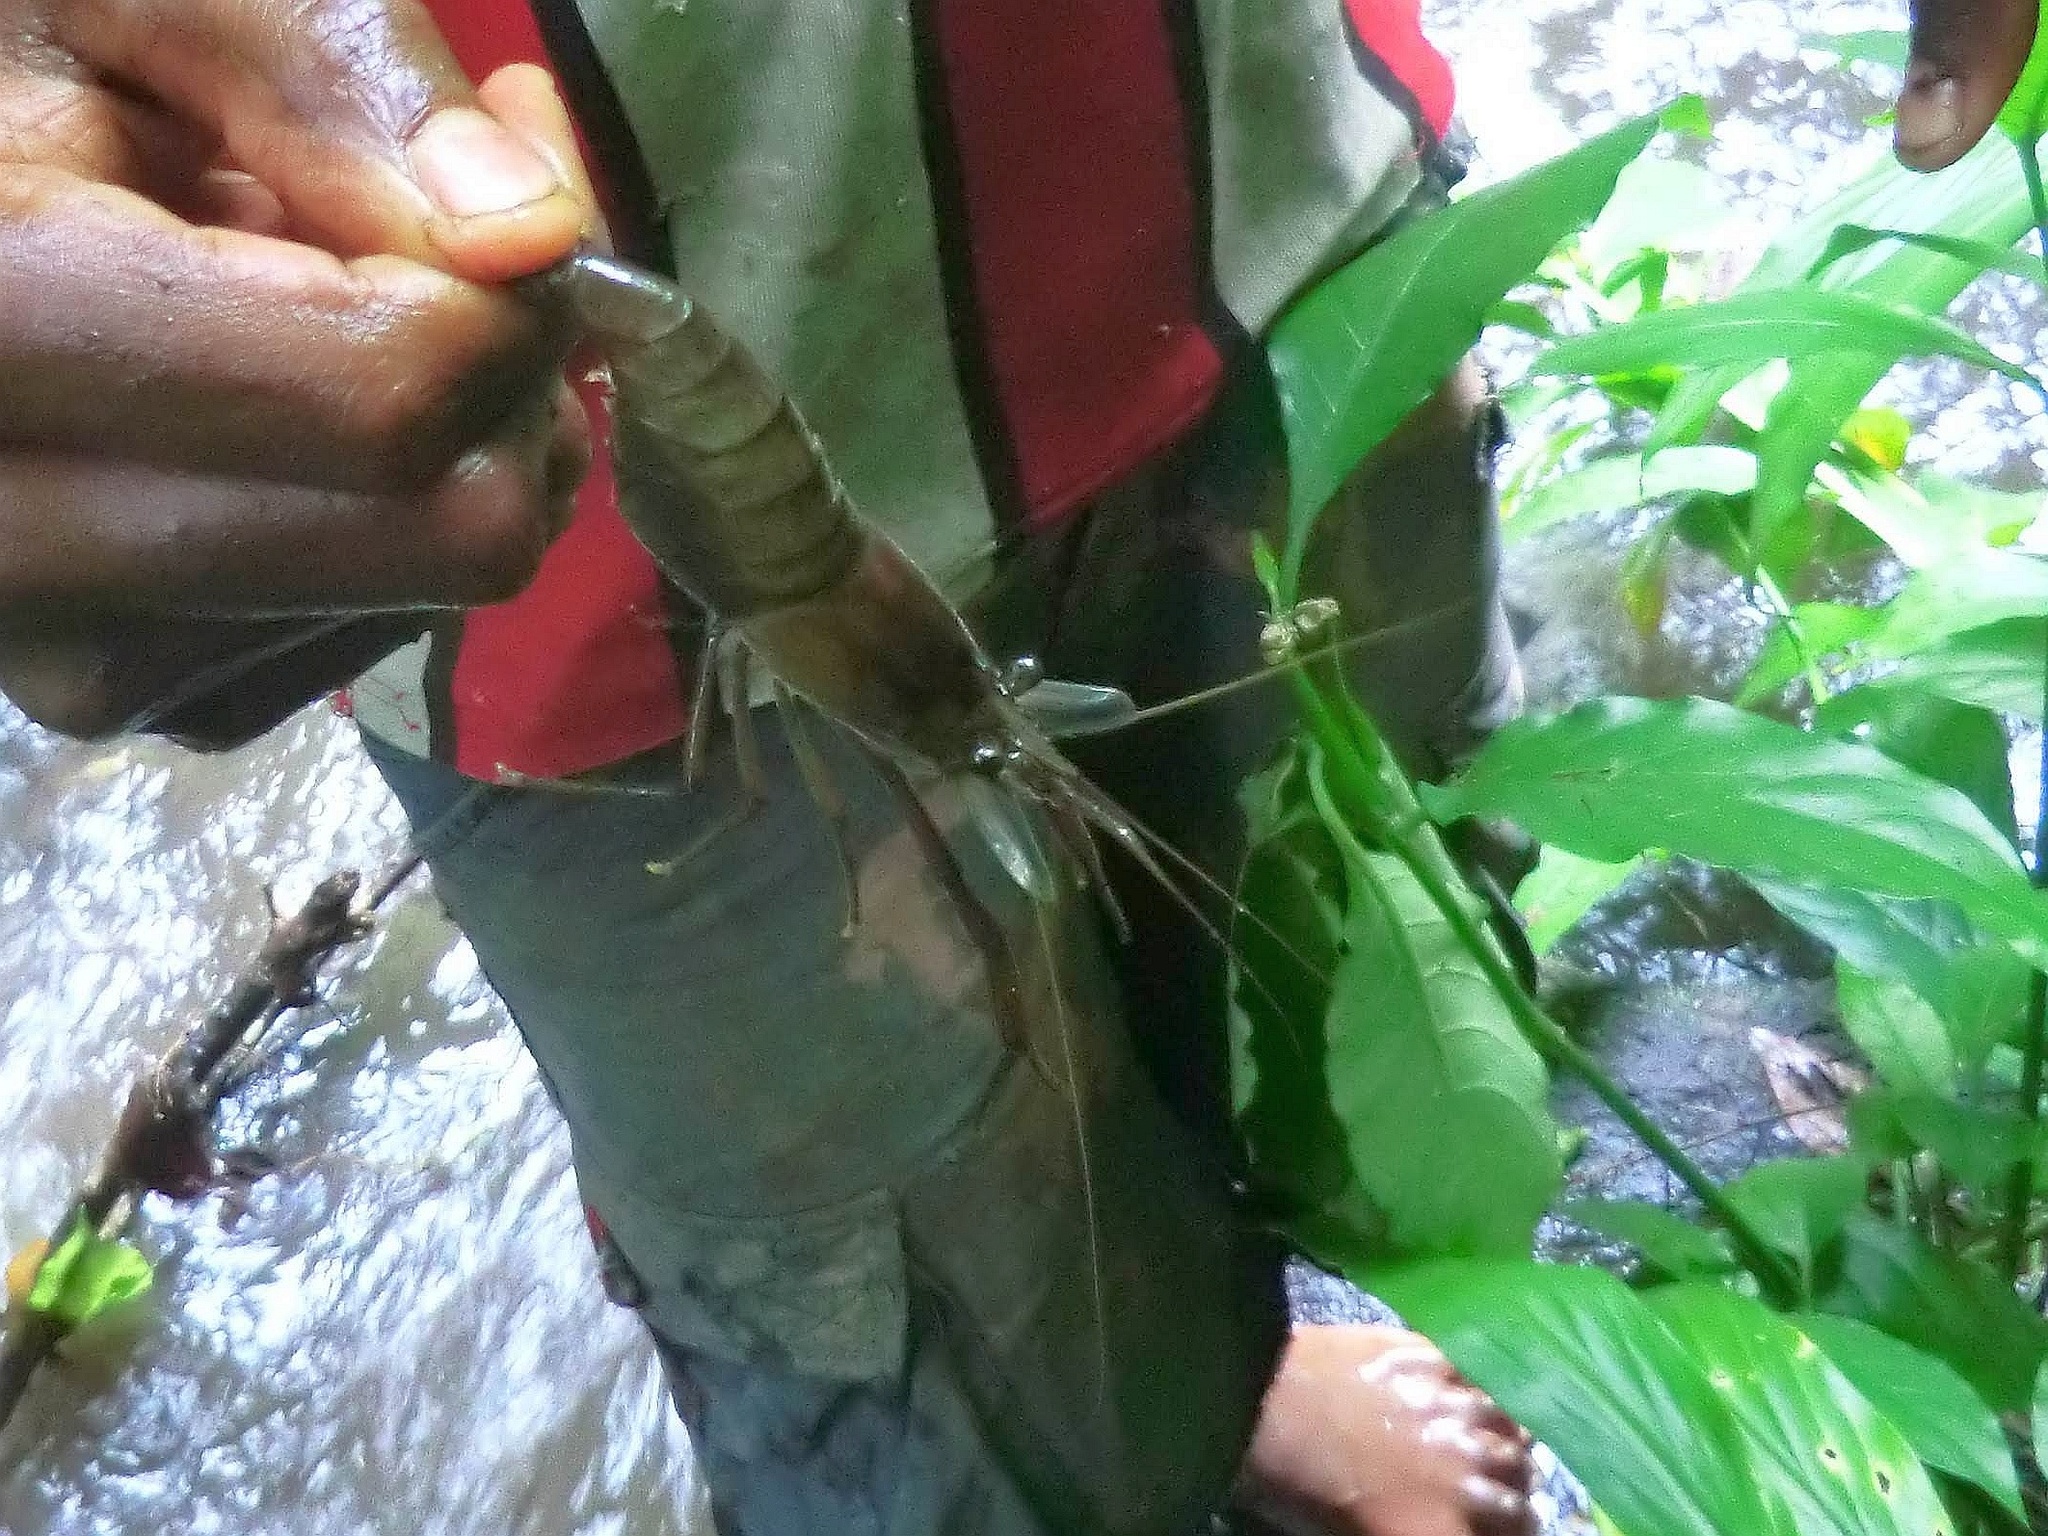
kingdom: Animalia
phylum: Arthropoda
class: Malacostraca
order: Decapoda
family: Palaemonidae
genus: Macrobrachium
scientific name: Macrobrachium lar
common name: Monkey river prawn
